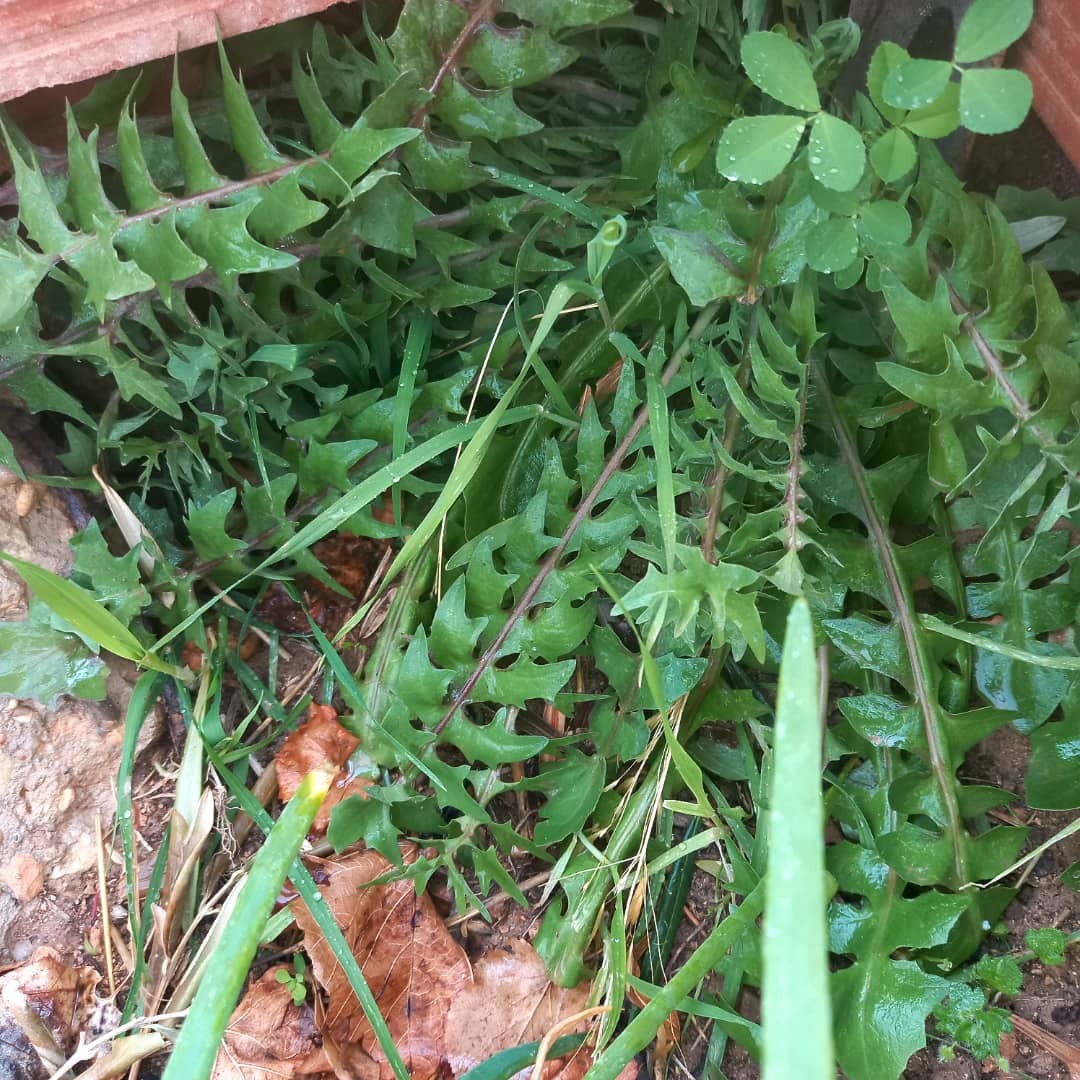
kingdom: Plantae
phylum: Tracheophyta
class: Magnoliopsida
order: Asterales
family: Asteraceae
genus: Hyoseris
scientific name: Hyoseris radiata
